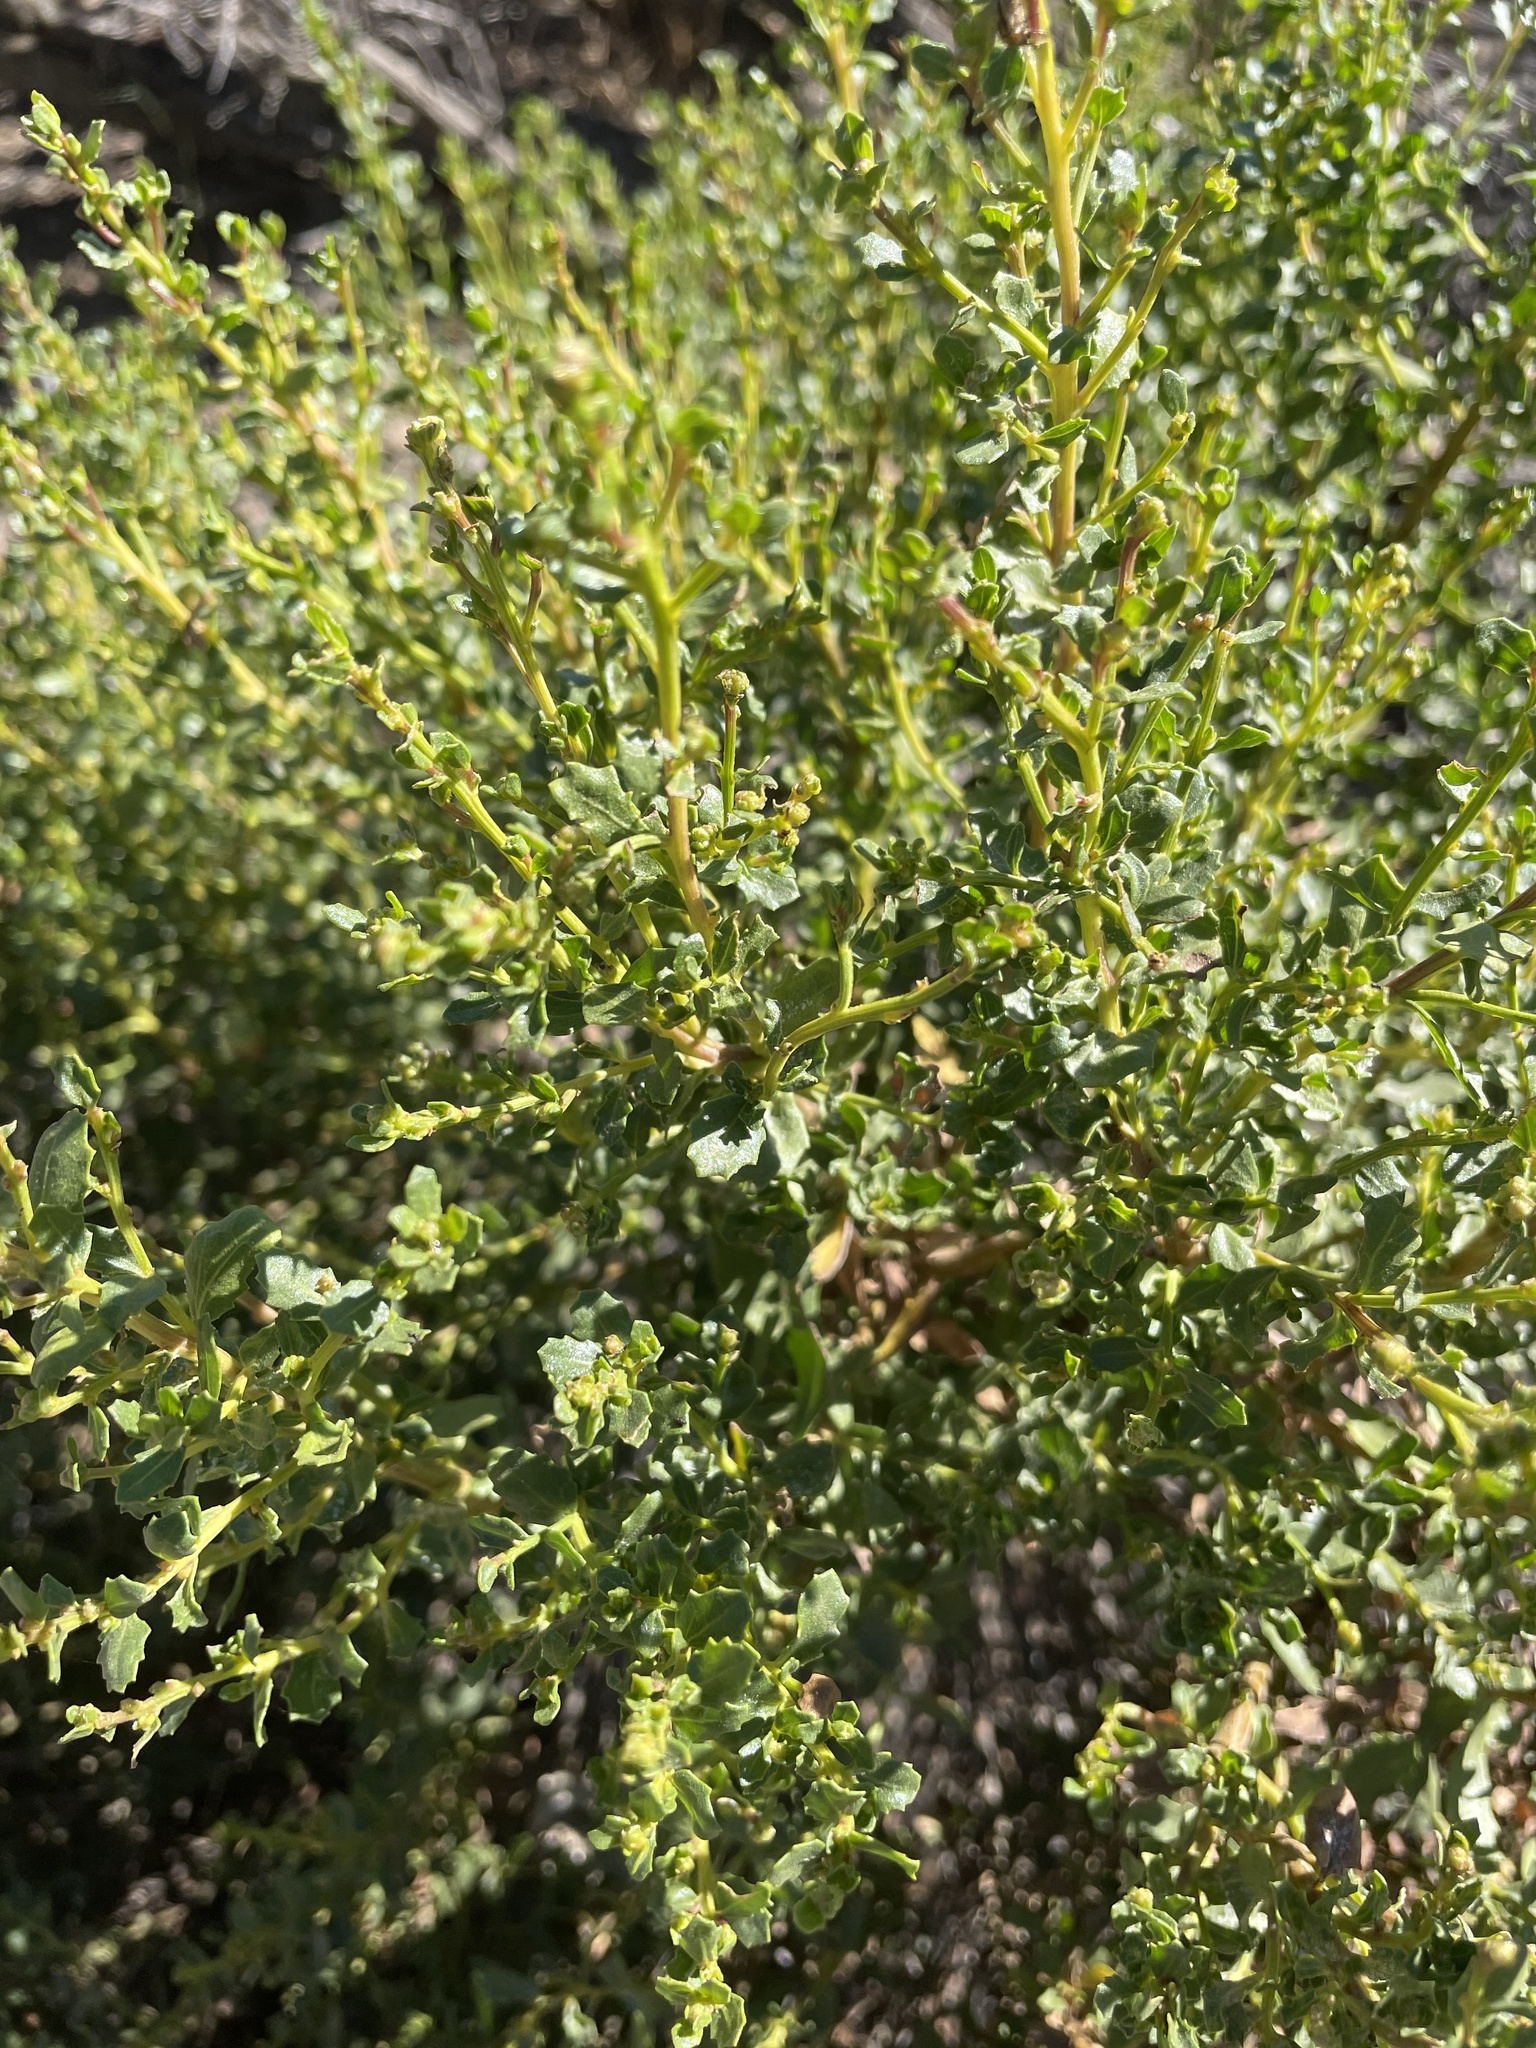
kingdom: Plantae
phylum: Tracheophyta
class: Magnoliopsida
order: Asterales
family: Asteraceae
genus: Baccharis
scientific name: Baccharis pilularis
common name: Coyotebrush
